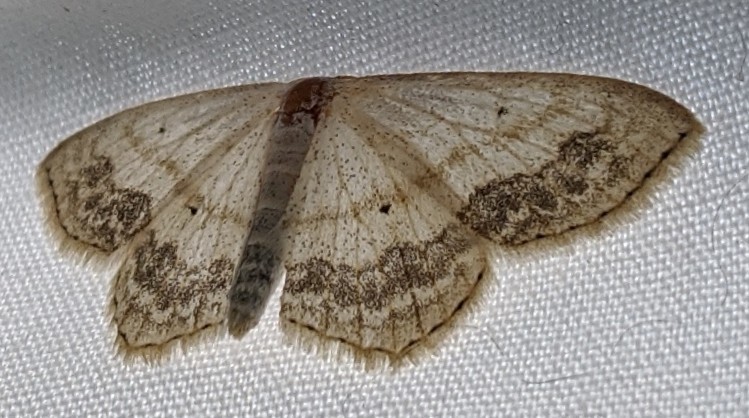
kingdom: Animalia
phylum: Arthropoda
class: Insecta
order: Lepidoptera
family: Geometridae
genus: Scopula
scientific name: Scopula limboundata
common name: Large lace border
